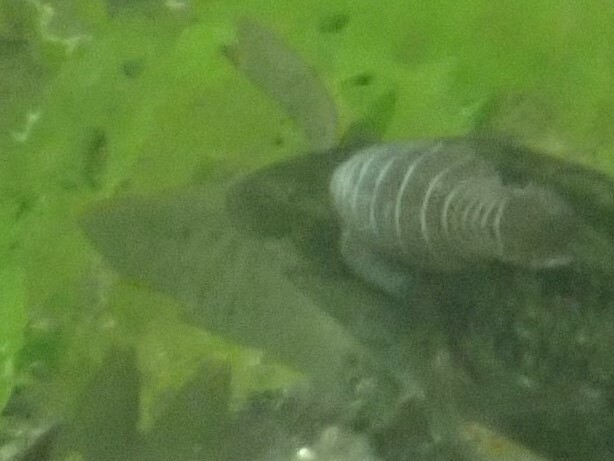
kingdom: Animalia
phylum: Arthropoda
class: Malacostraca
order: Isopoda
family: Cymothoidae
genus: Anilocra
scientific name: Anilocra
